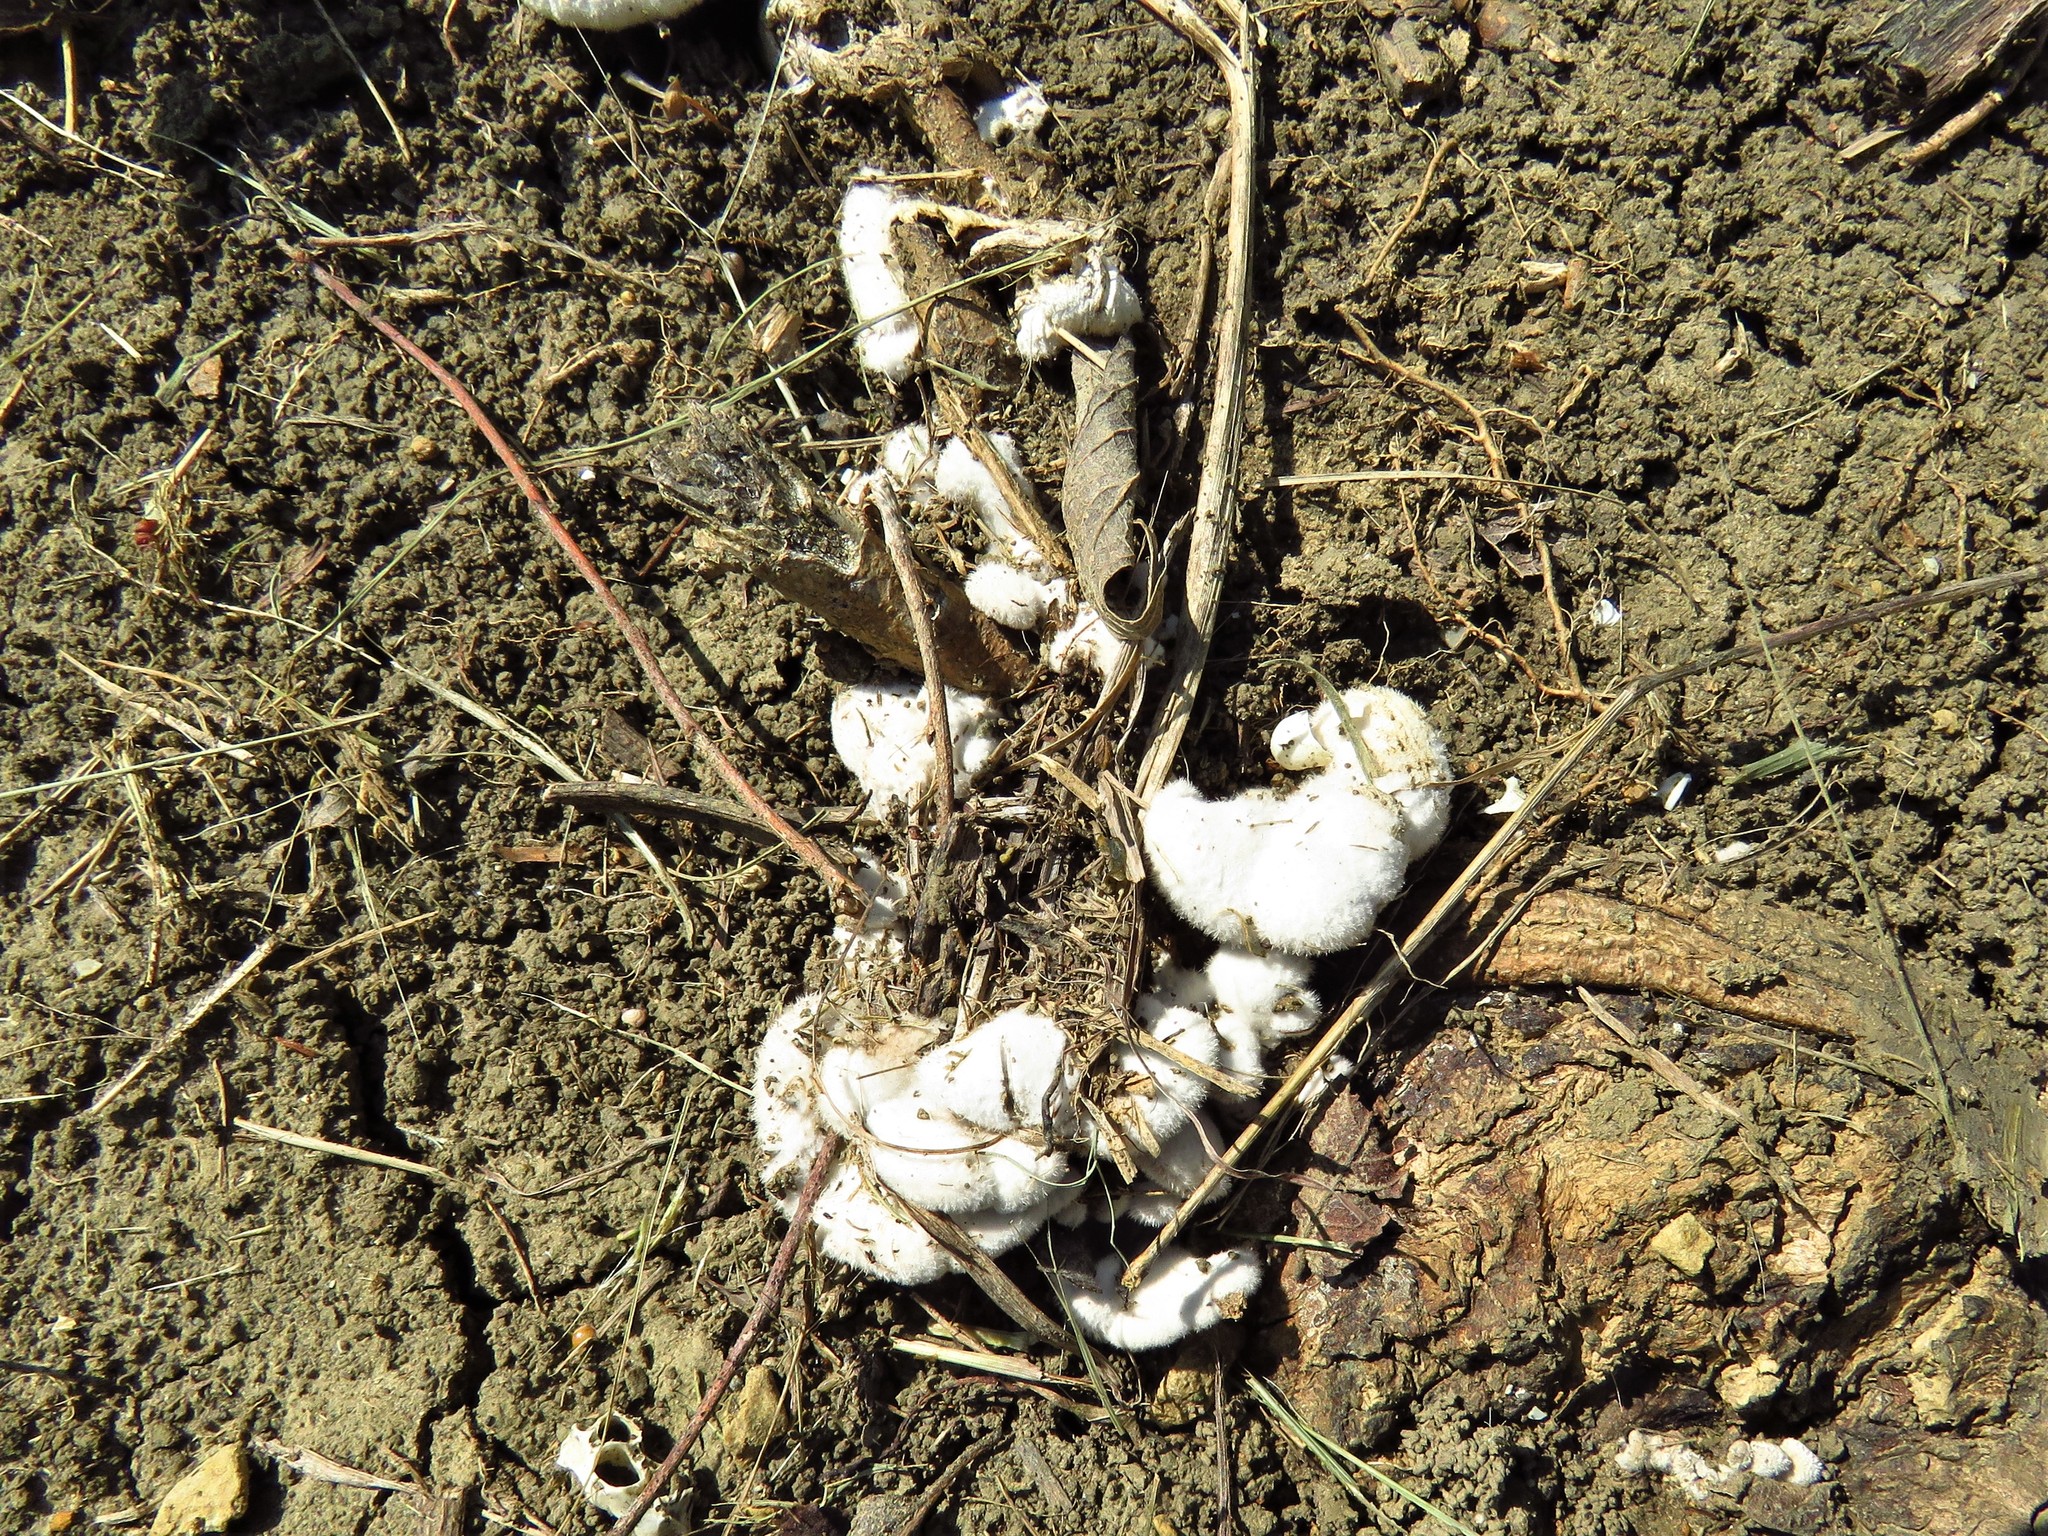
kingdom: Fungi
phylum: Basidiomycota
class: Agaricomycetes
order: Agaricales
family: Schizophyllaceae
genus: Schizophyllum
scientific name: Schizophyllum commune
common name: Common porecrust
